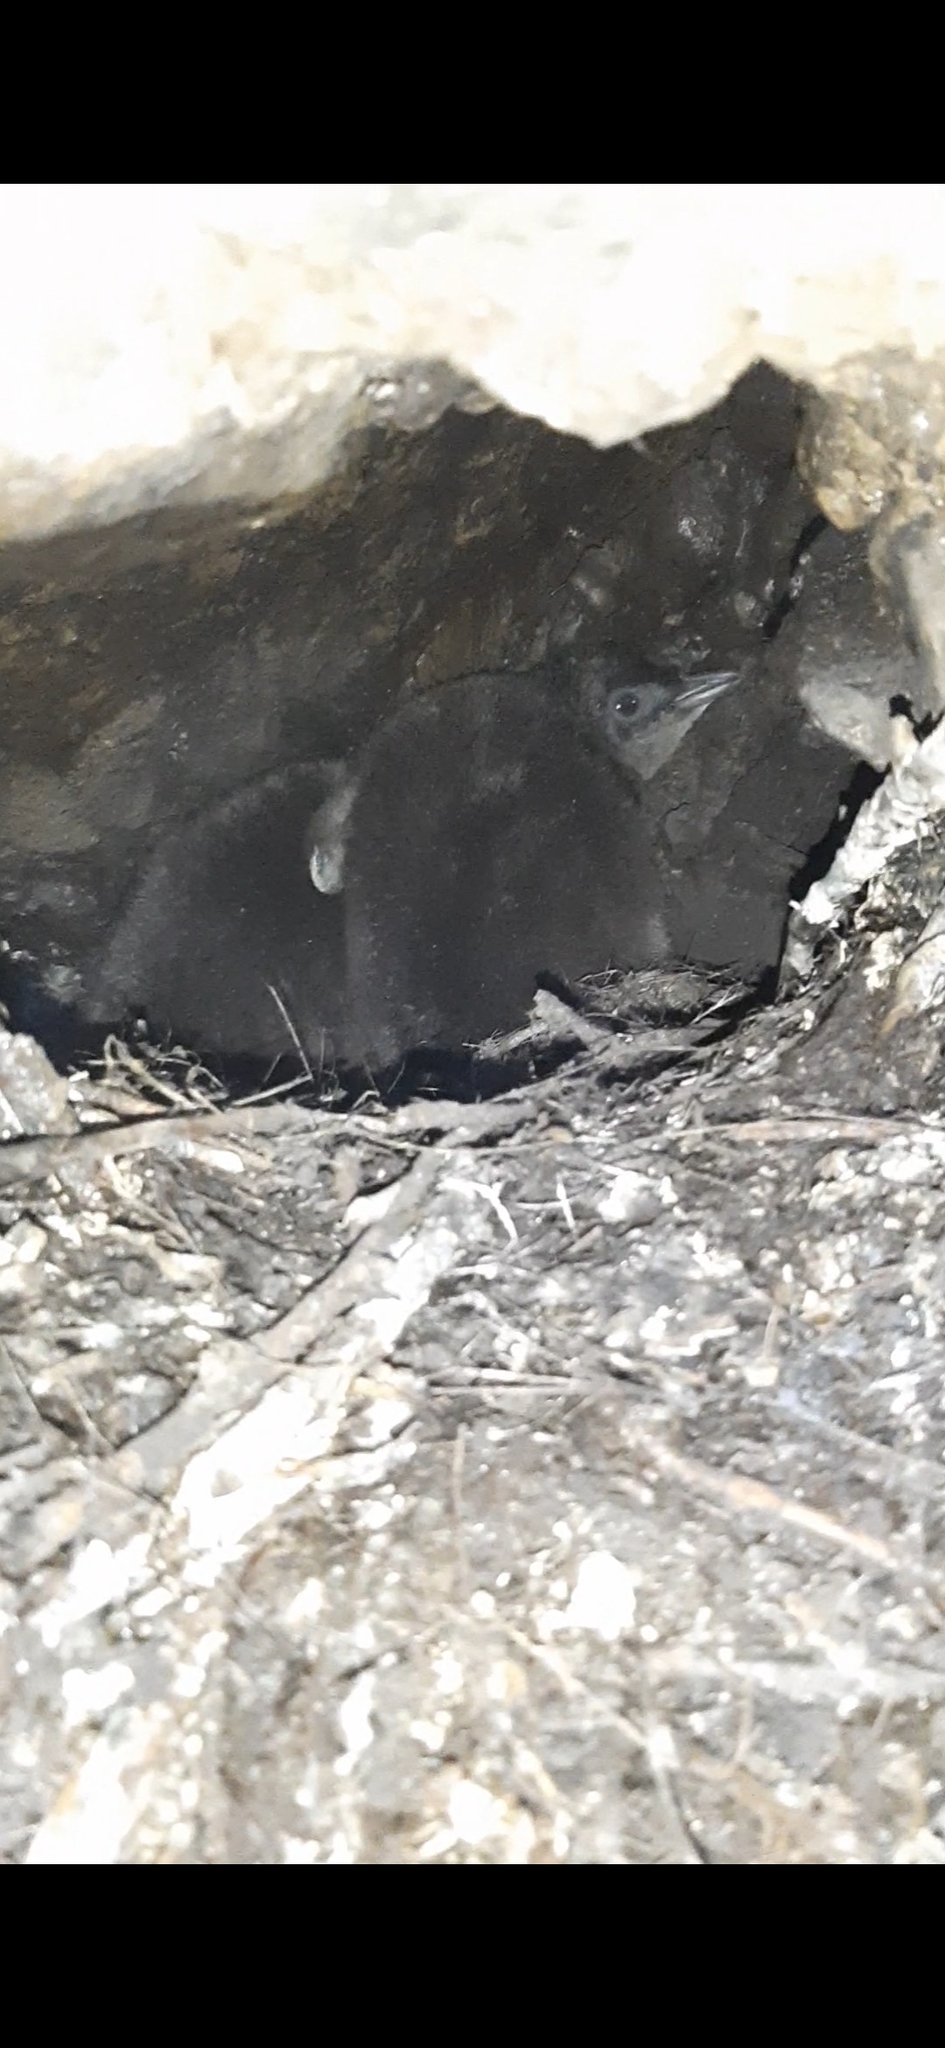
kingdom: Animalia
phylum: Chordata
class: Aves
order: Sphenisciformes
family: Spheniscidae
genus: Eudyptula
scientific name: Eudyptula minor
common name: Little penguin
